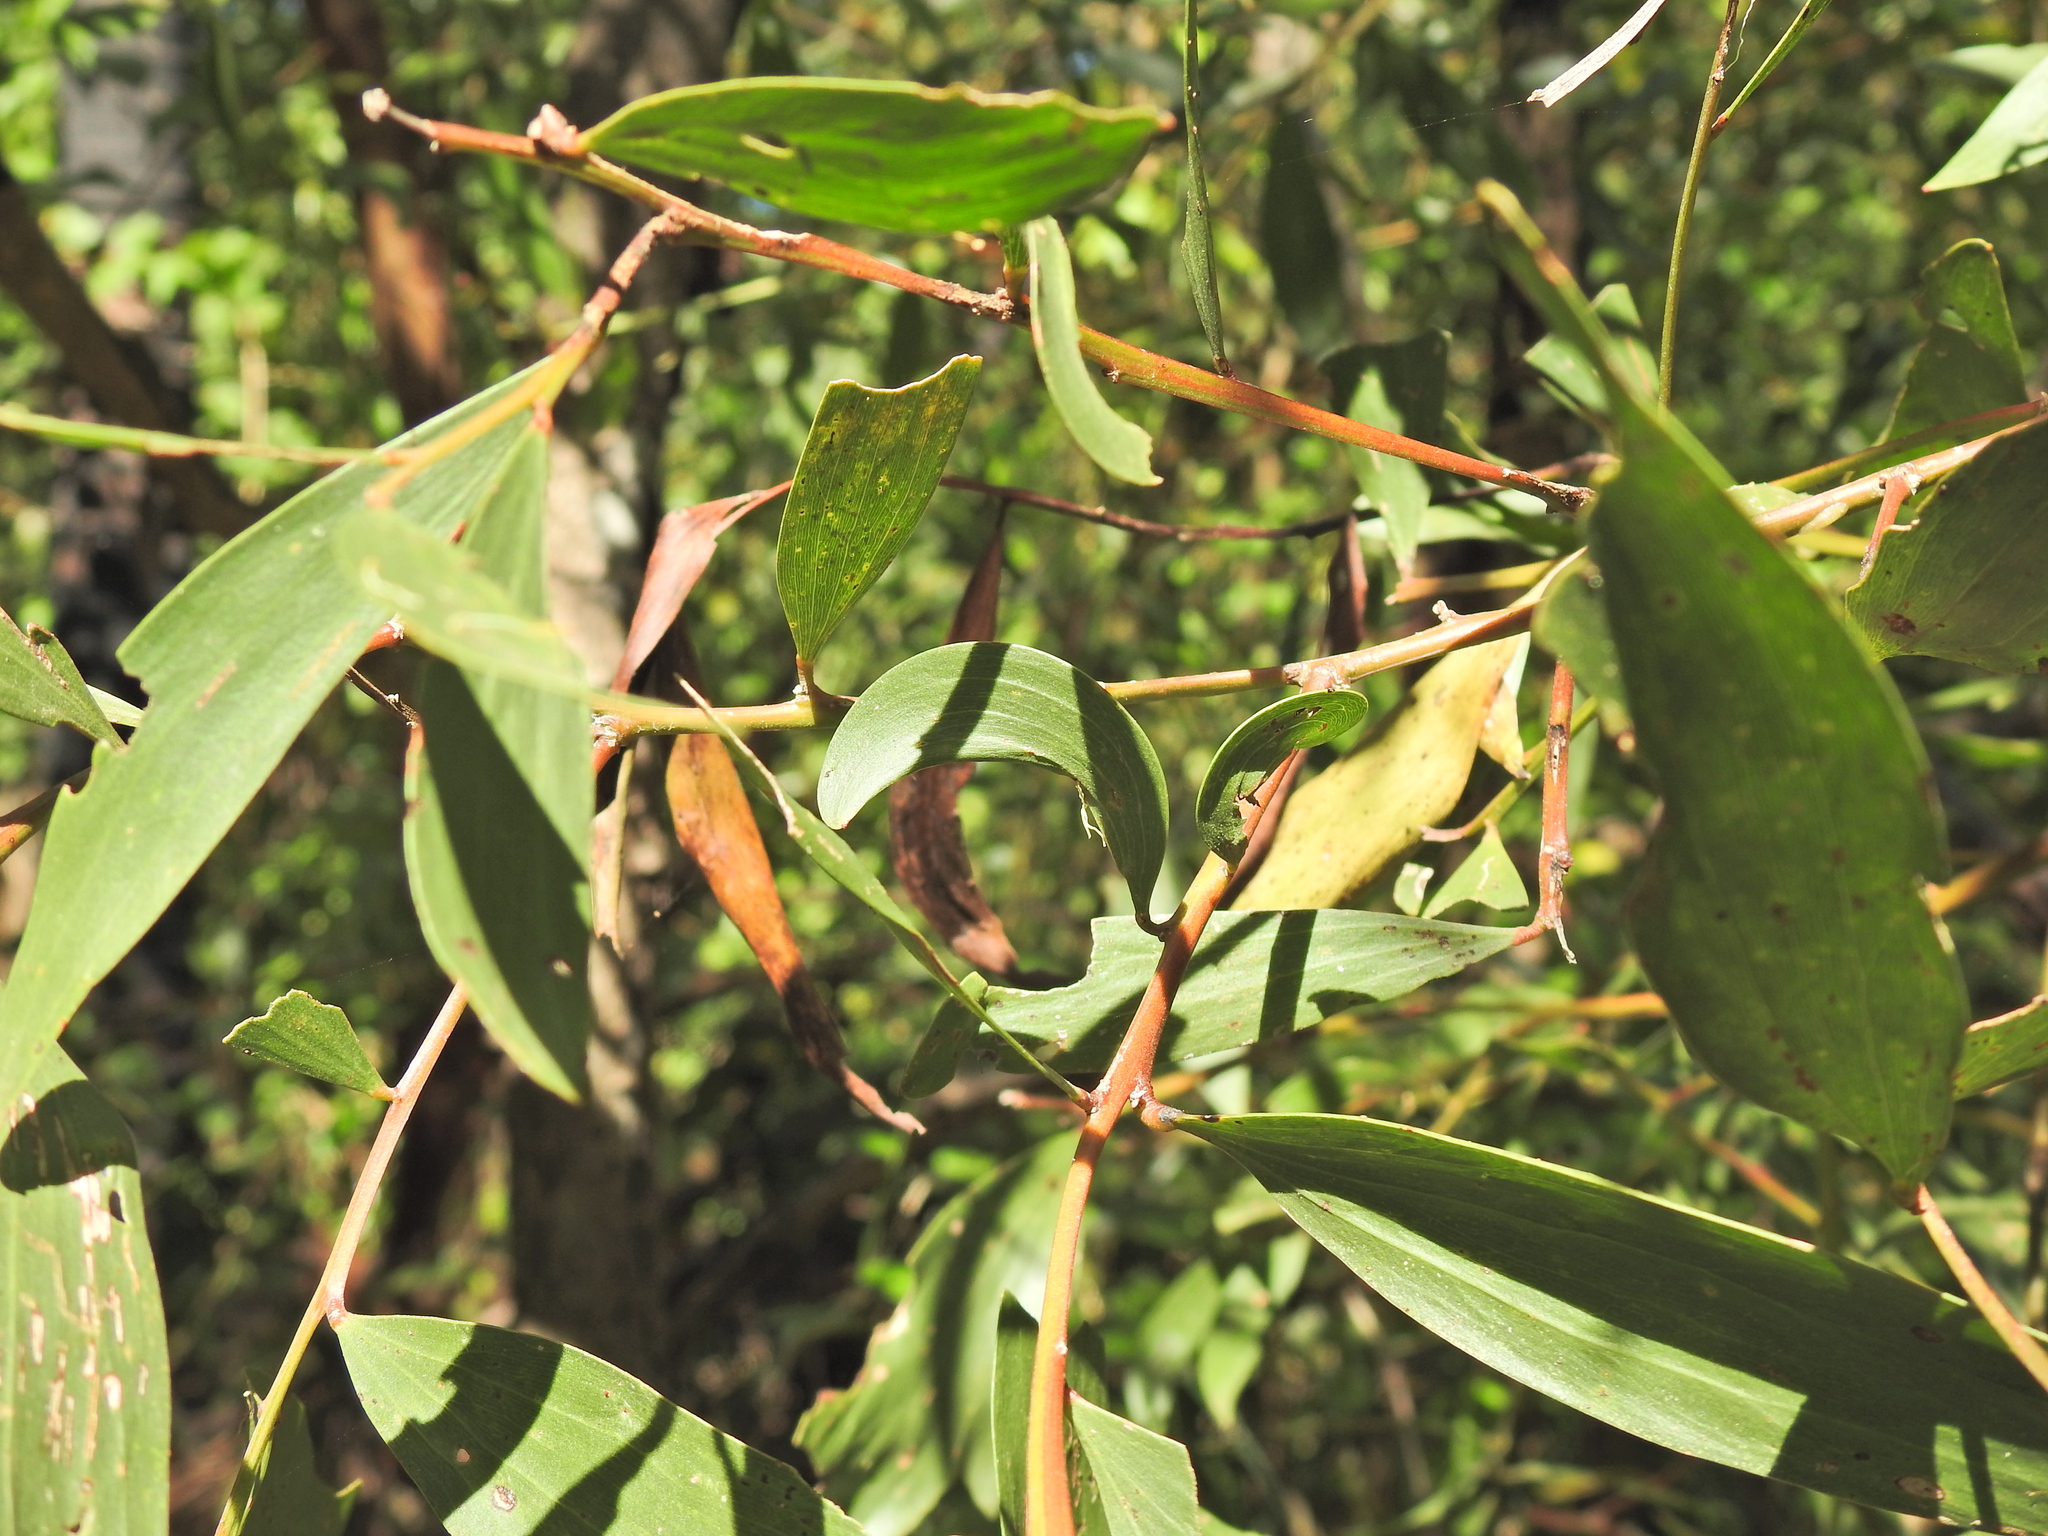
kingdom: Plantae
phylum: Tracheophyta
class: Magnoliopsida
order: Fabales
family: Fabaceae
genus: Acacia
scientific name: Acacia leiocalyx
